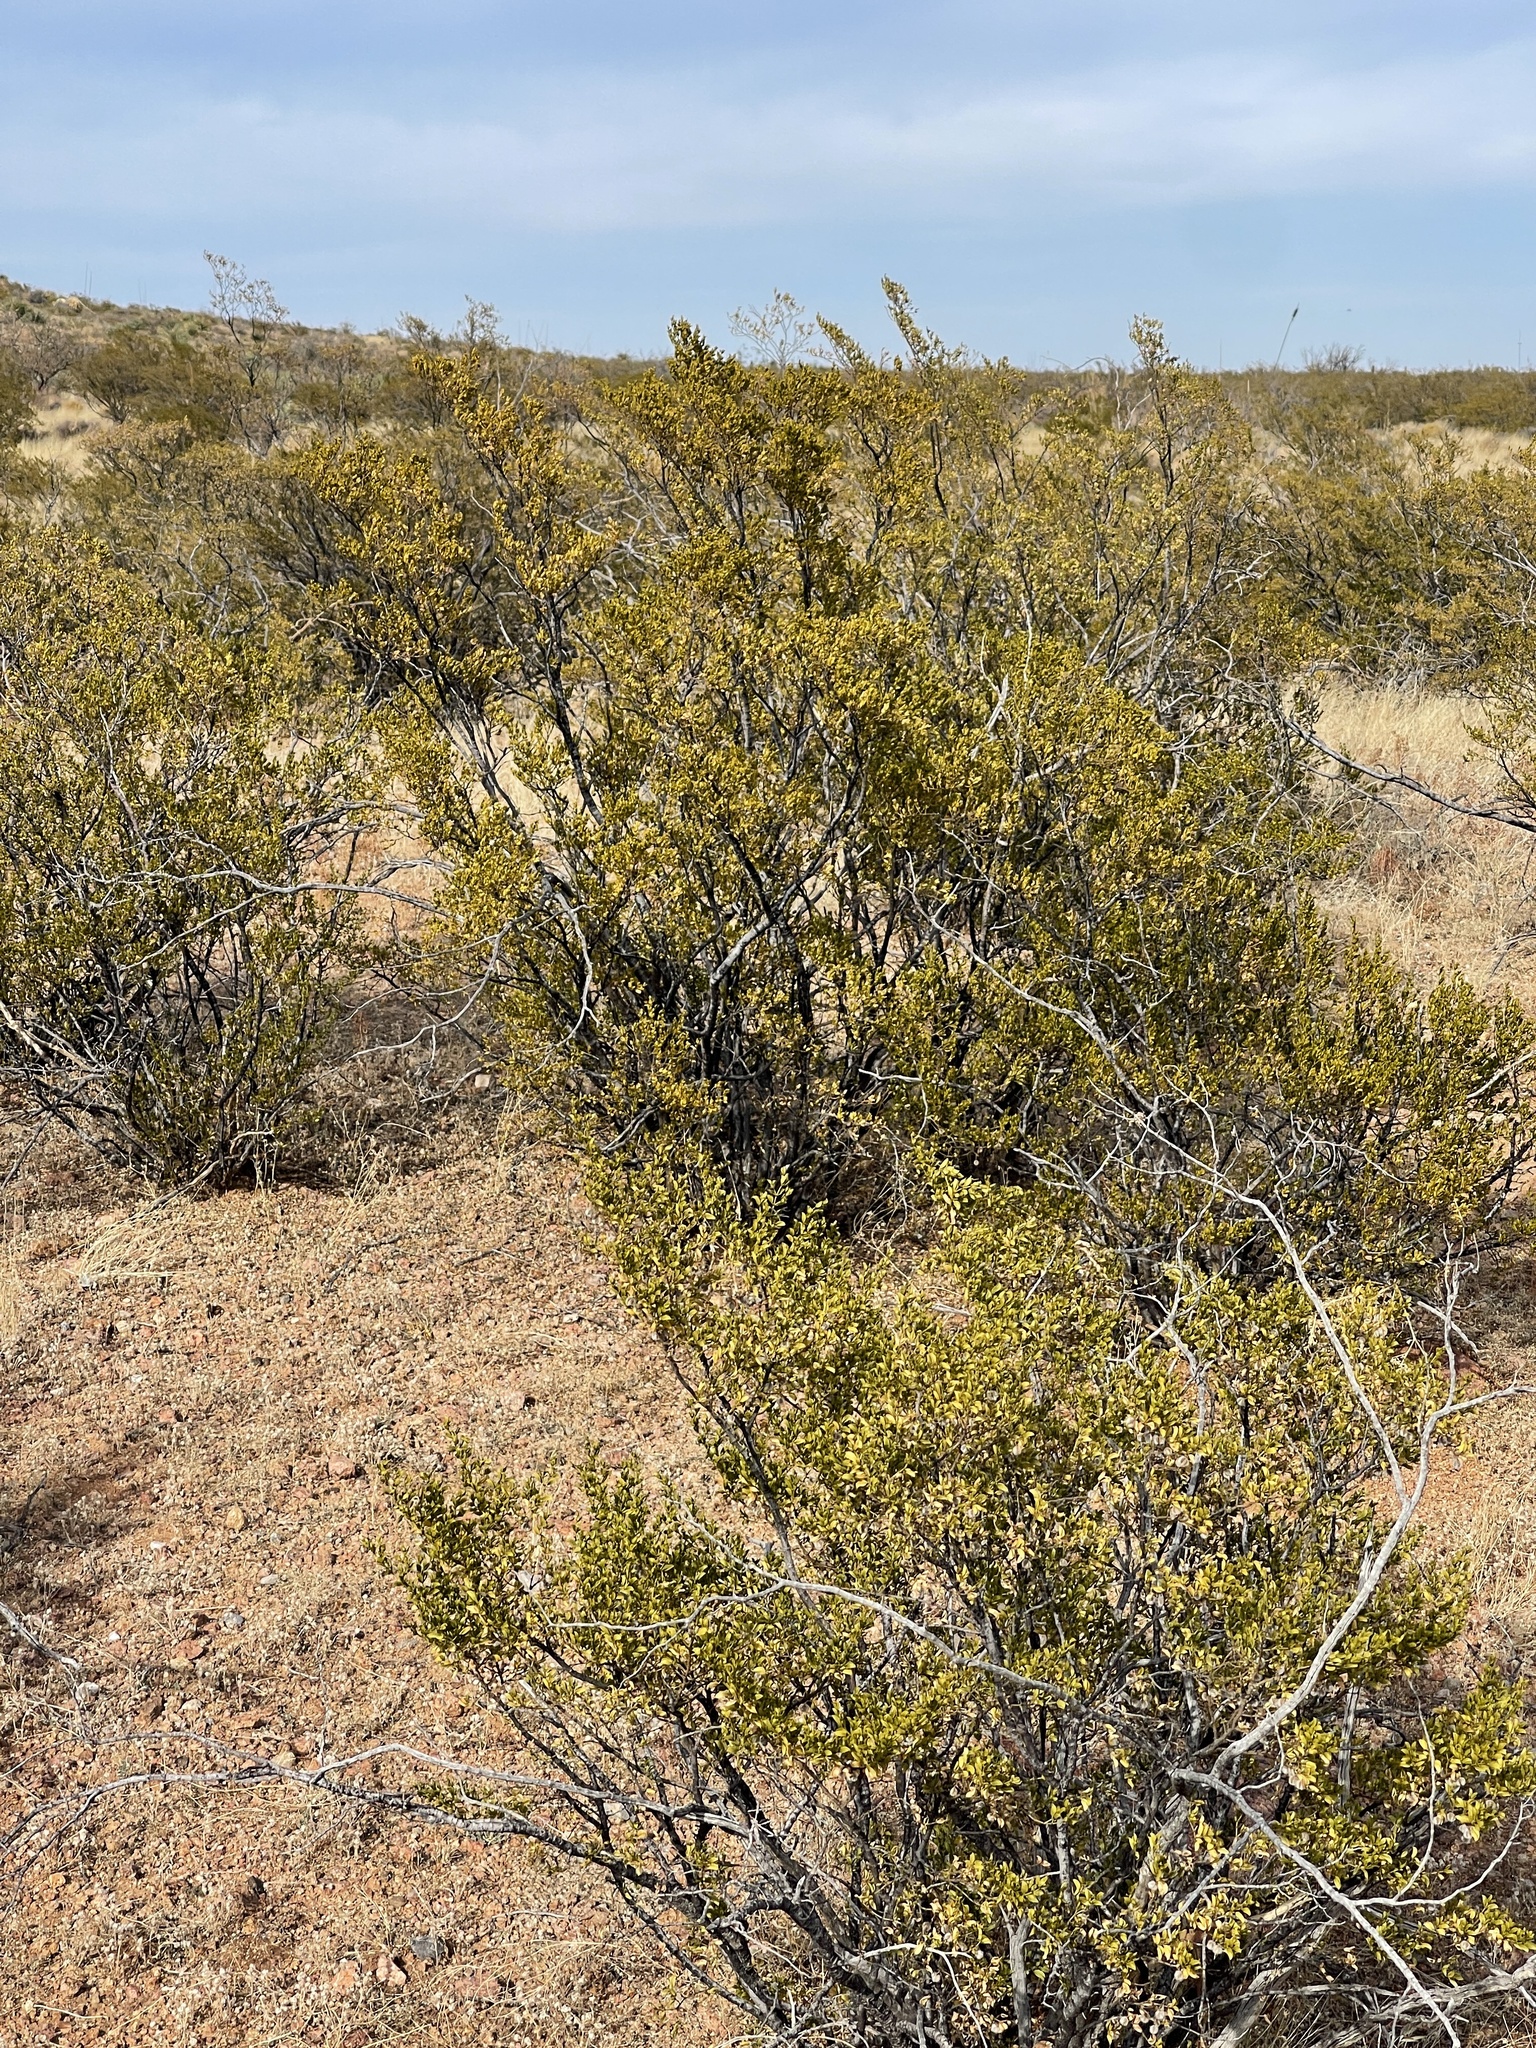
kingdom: Plantae
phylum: Tracheophyta
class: Magnoliopsida
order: Zygophyllales
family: Zygophyllaceae
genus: Larrea
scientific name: Larrea tridentata
